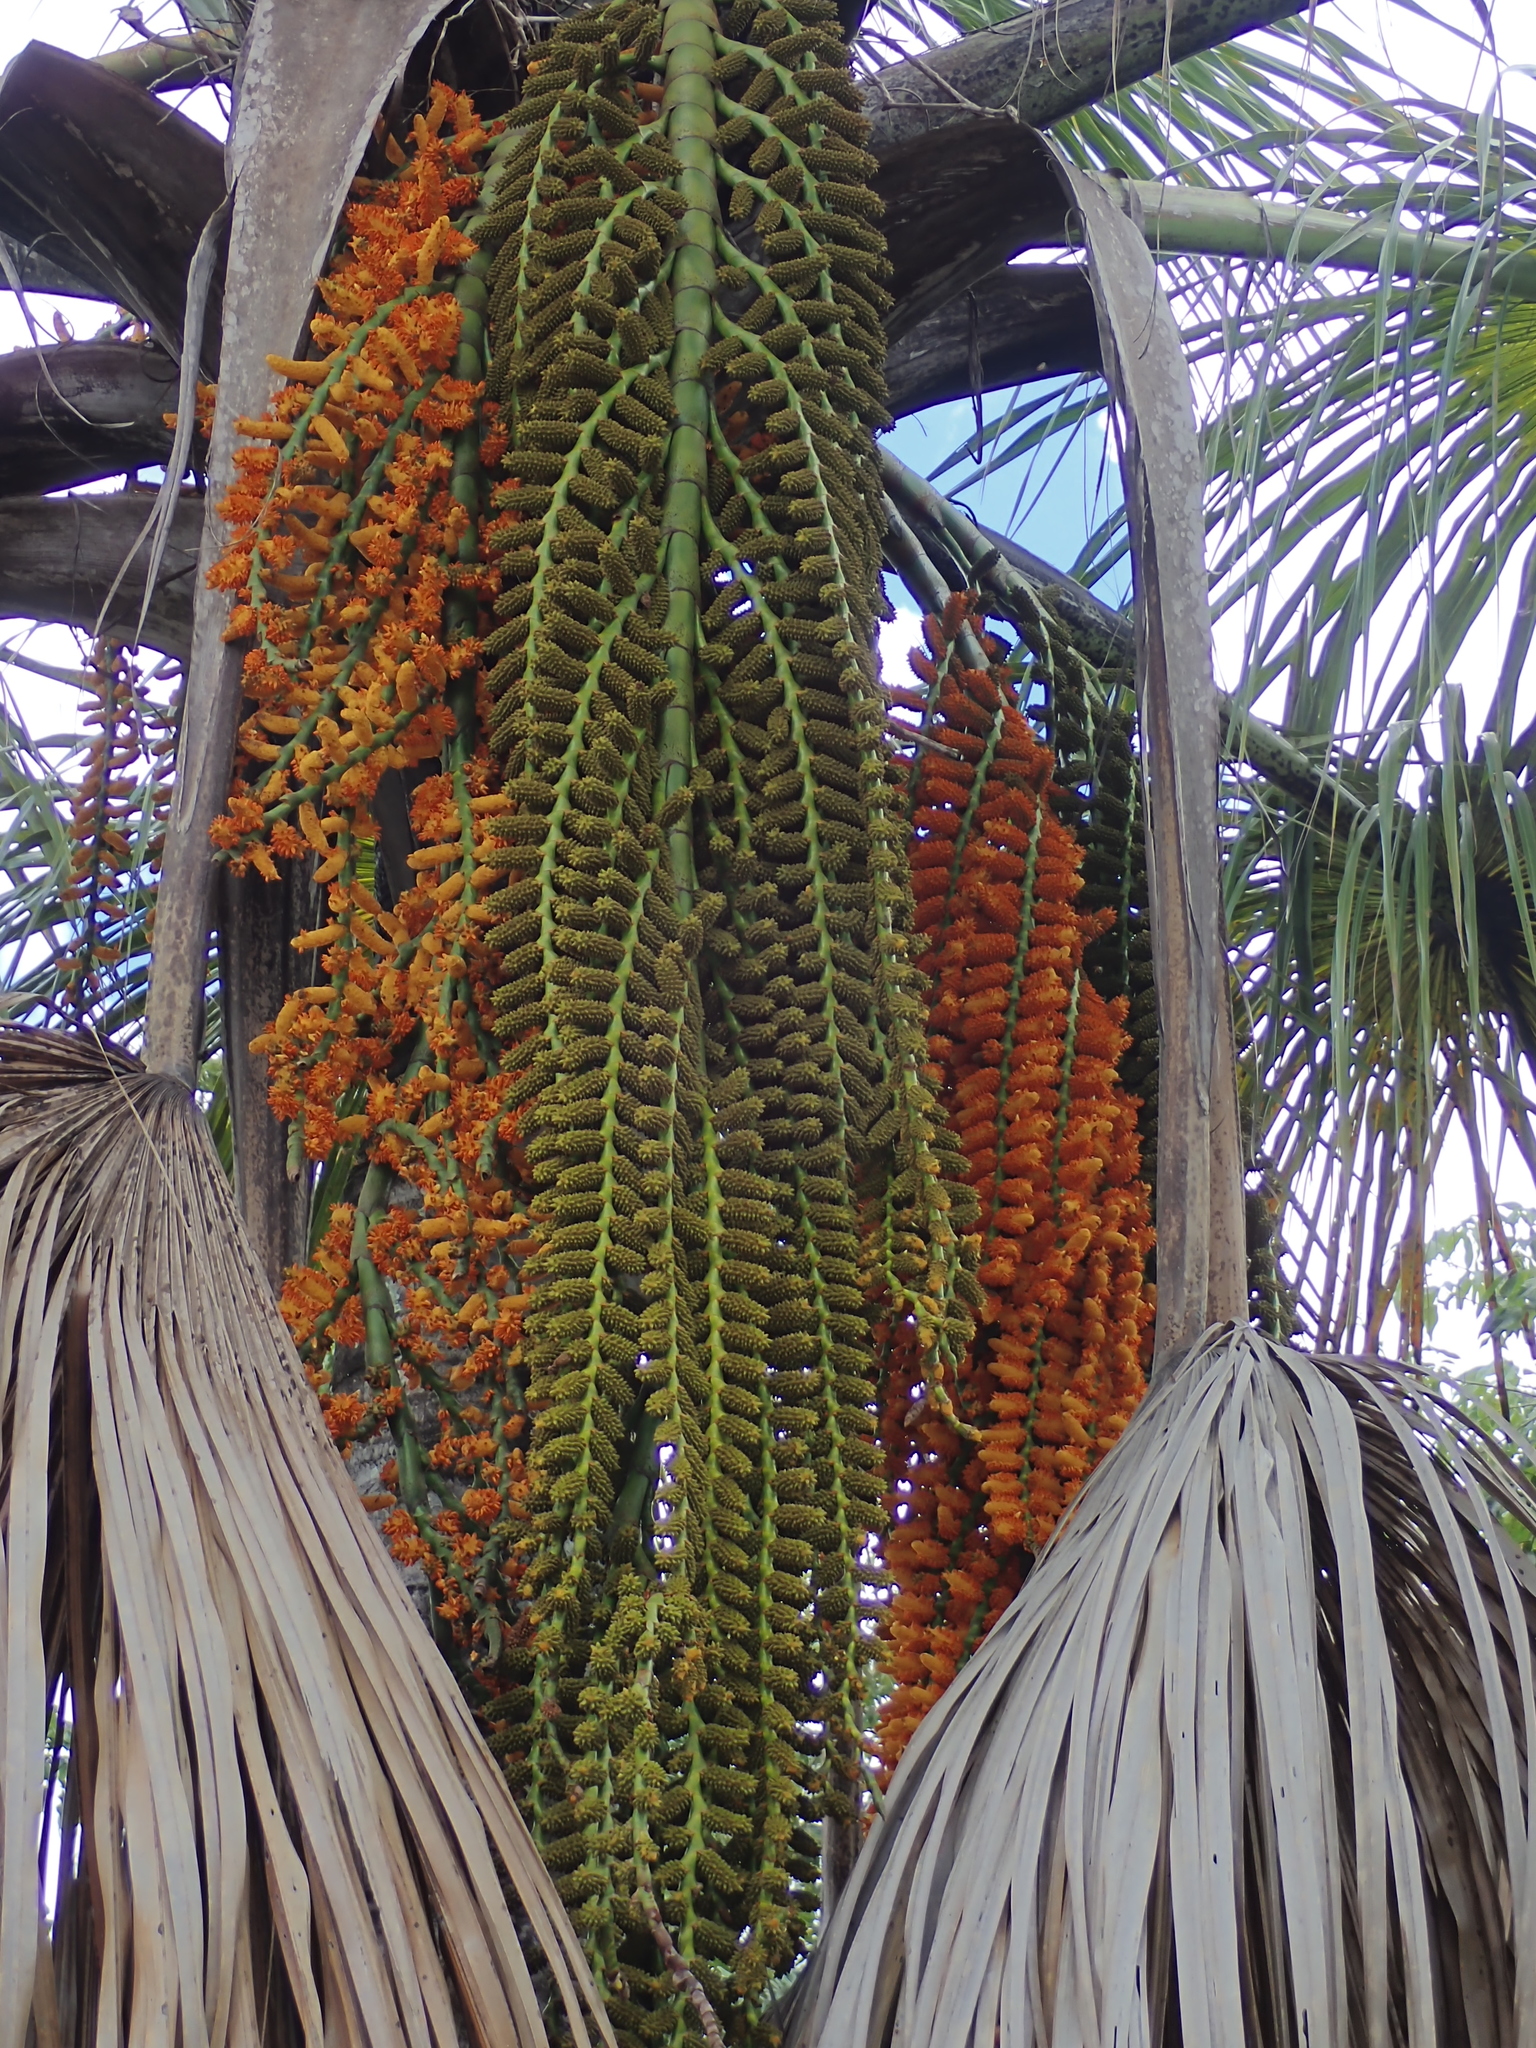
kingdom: Plantae
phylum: Tracheophyta
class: Liliopsida
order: Arecales
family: Arecaceae
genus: Mauritia
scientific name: Mauritia flexuosa
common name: Tree-of-life
